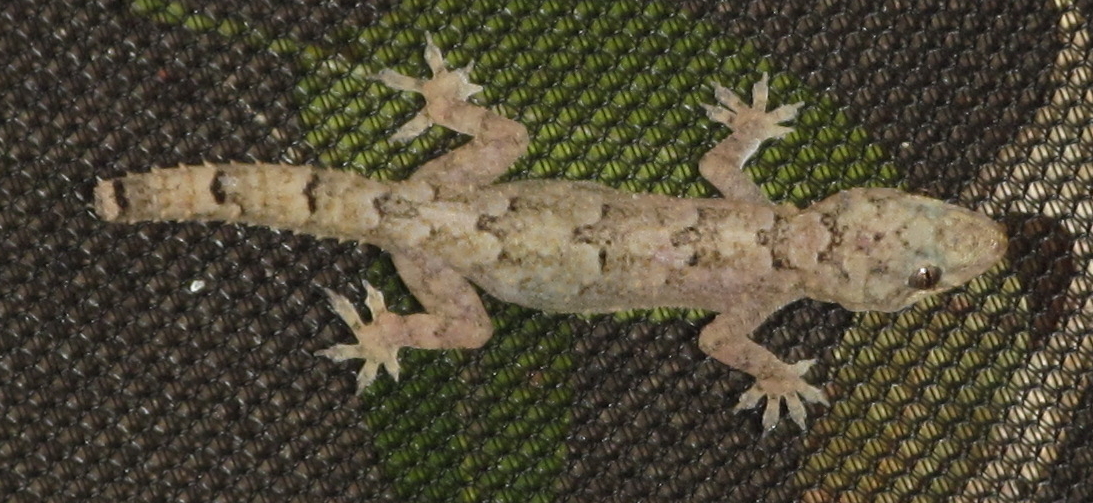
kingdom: Animalia
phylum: Chordata
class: Squamata
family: Gekkonidae
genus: Hemidactylus
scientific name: Hemidactylus mabouia
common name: House gecko
